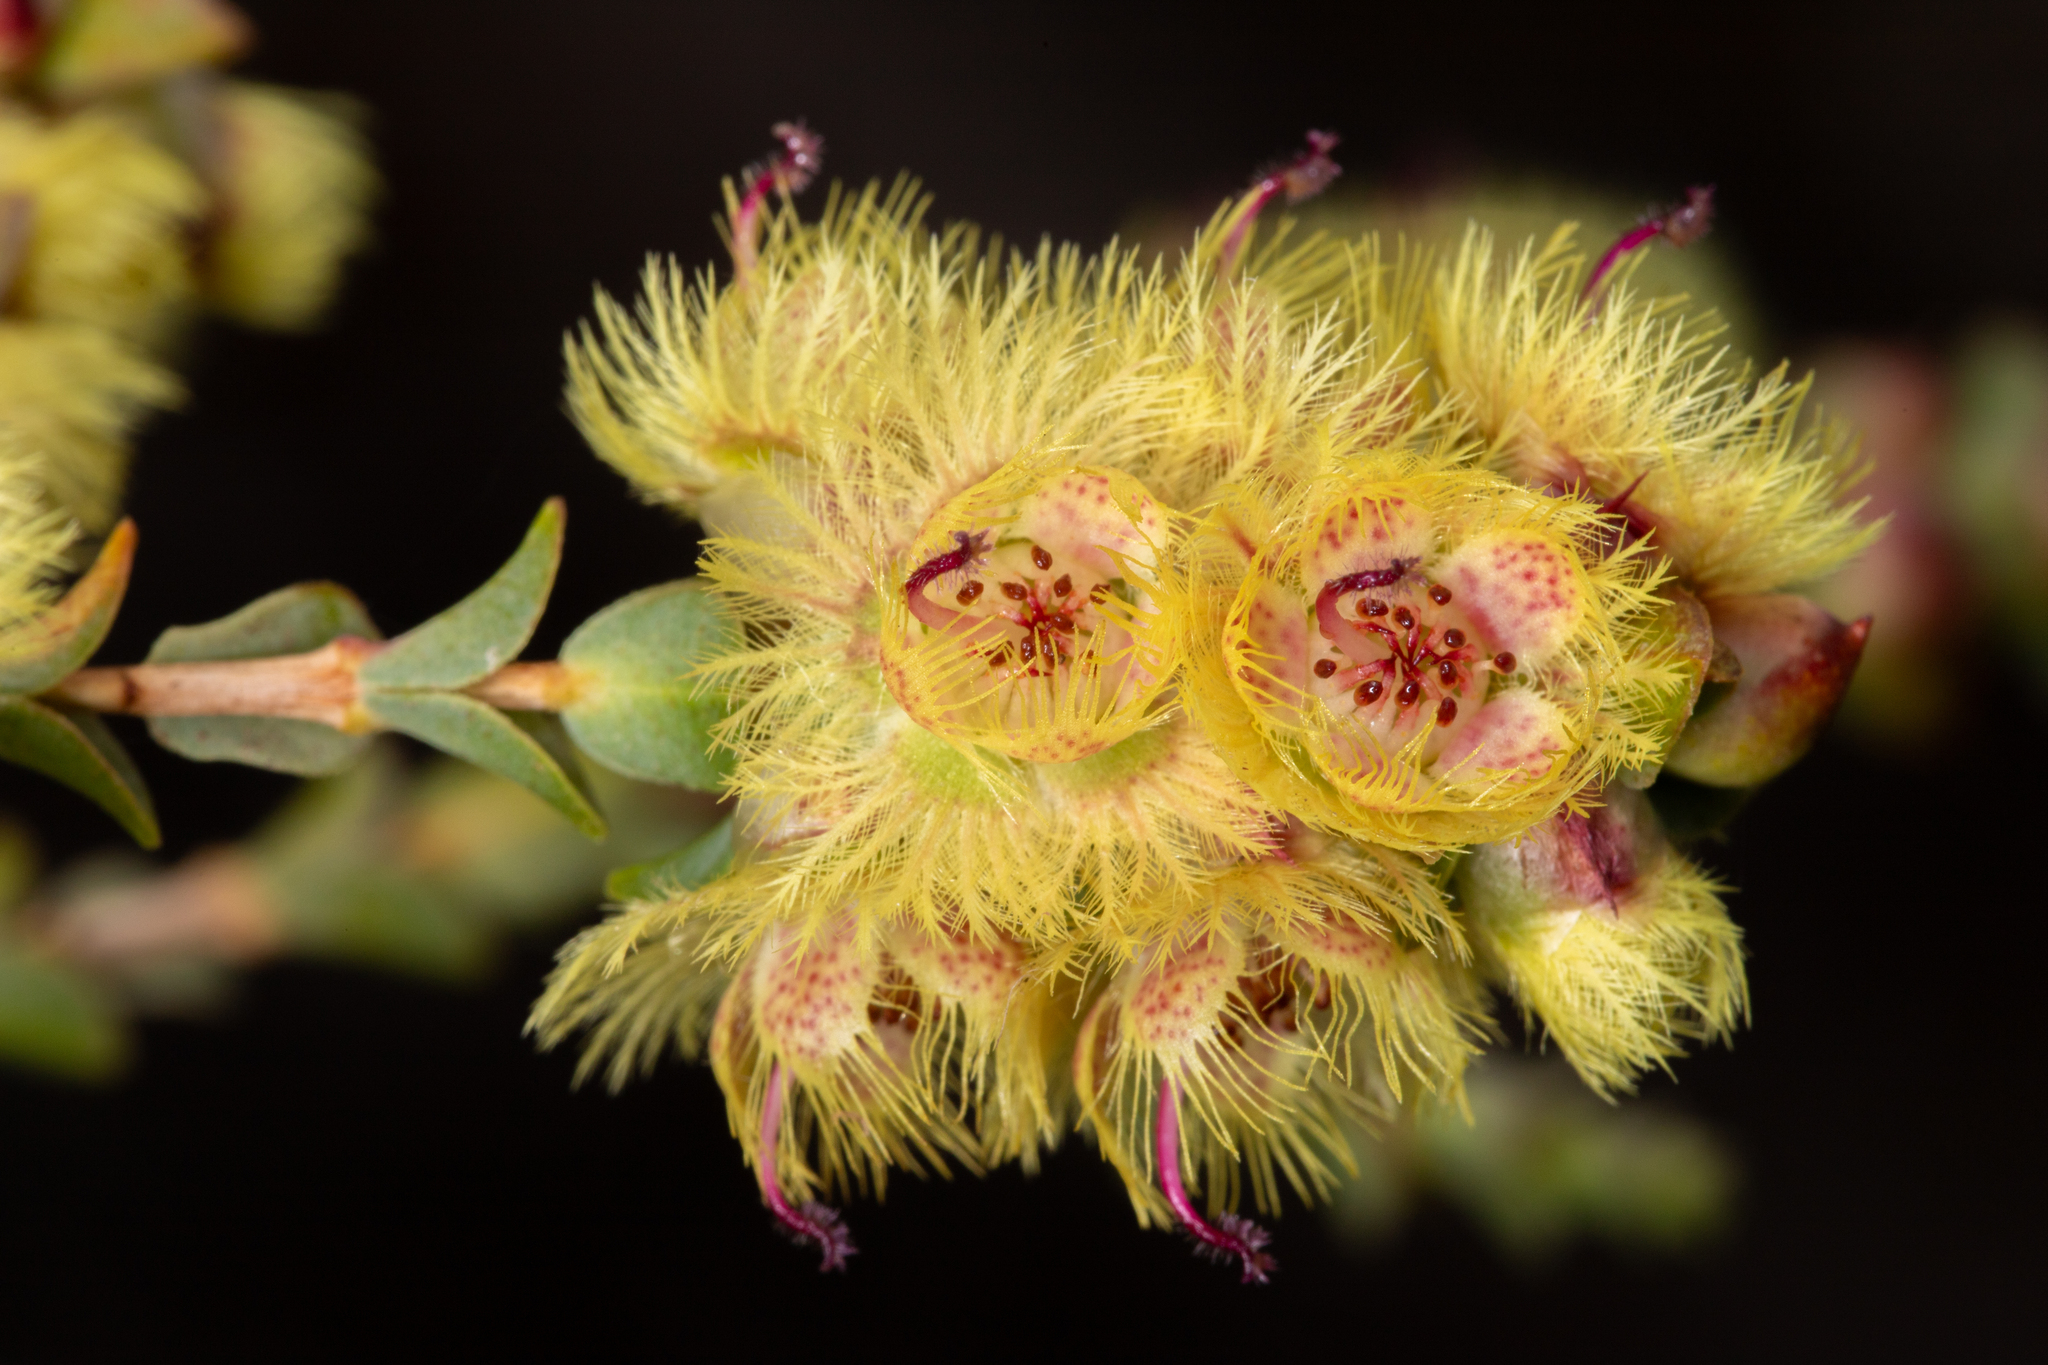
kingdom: Plantae
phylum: Tracheophyta
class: Magnoliopsida
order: Myrtales
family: Myrtaceae
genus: Verticordia
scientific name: Verticordia chrysostachys
